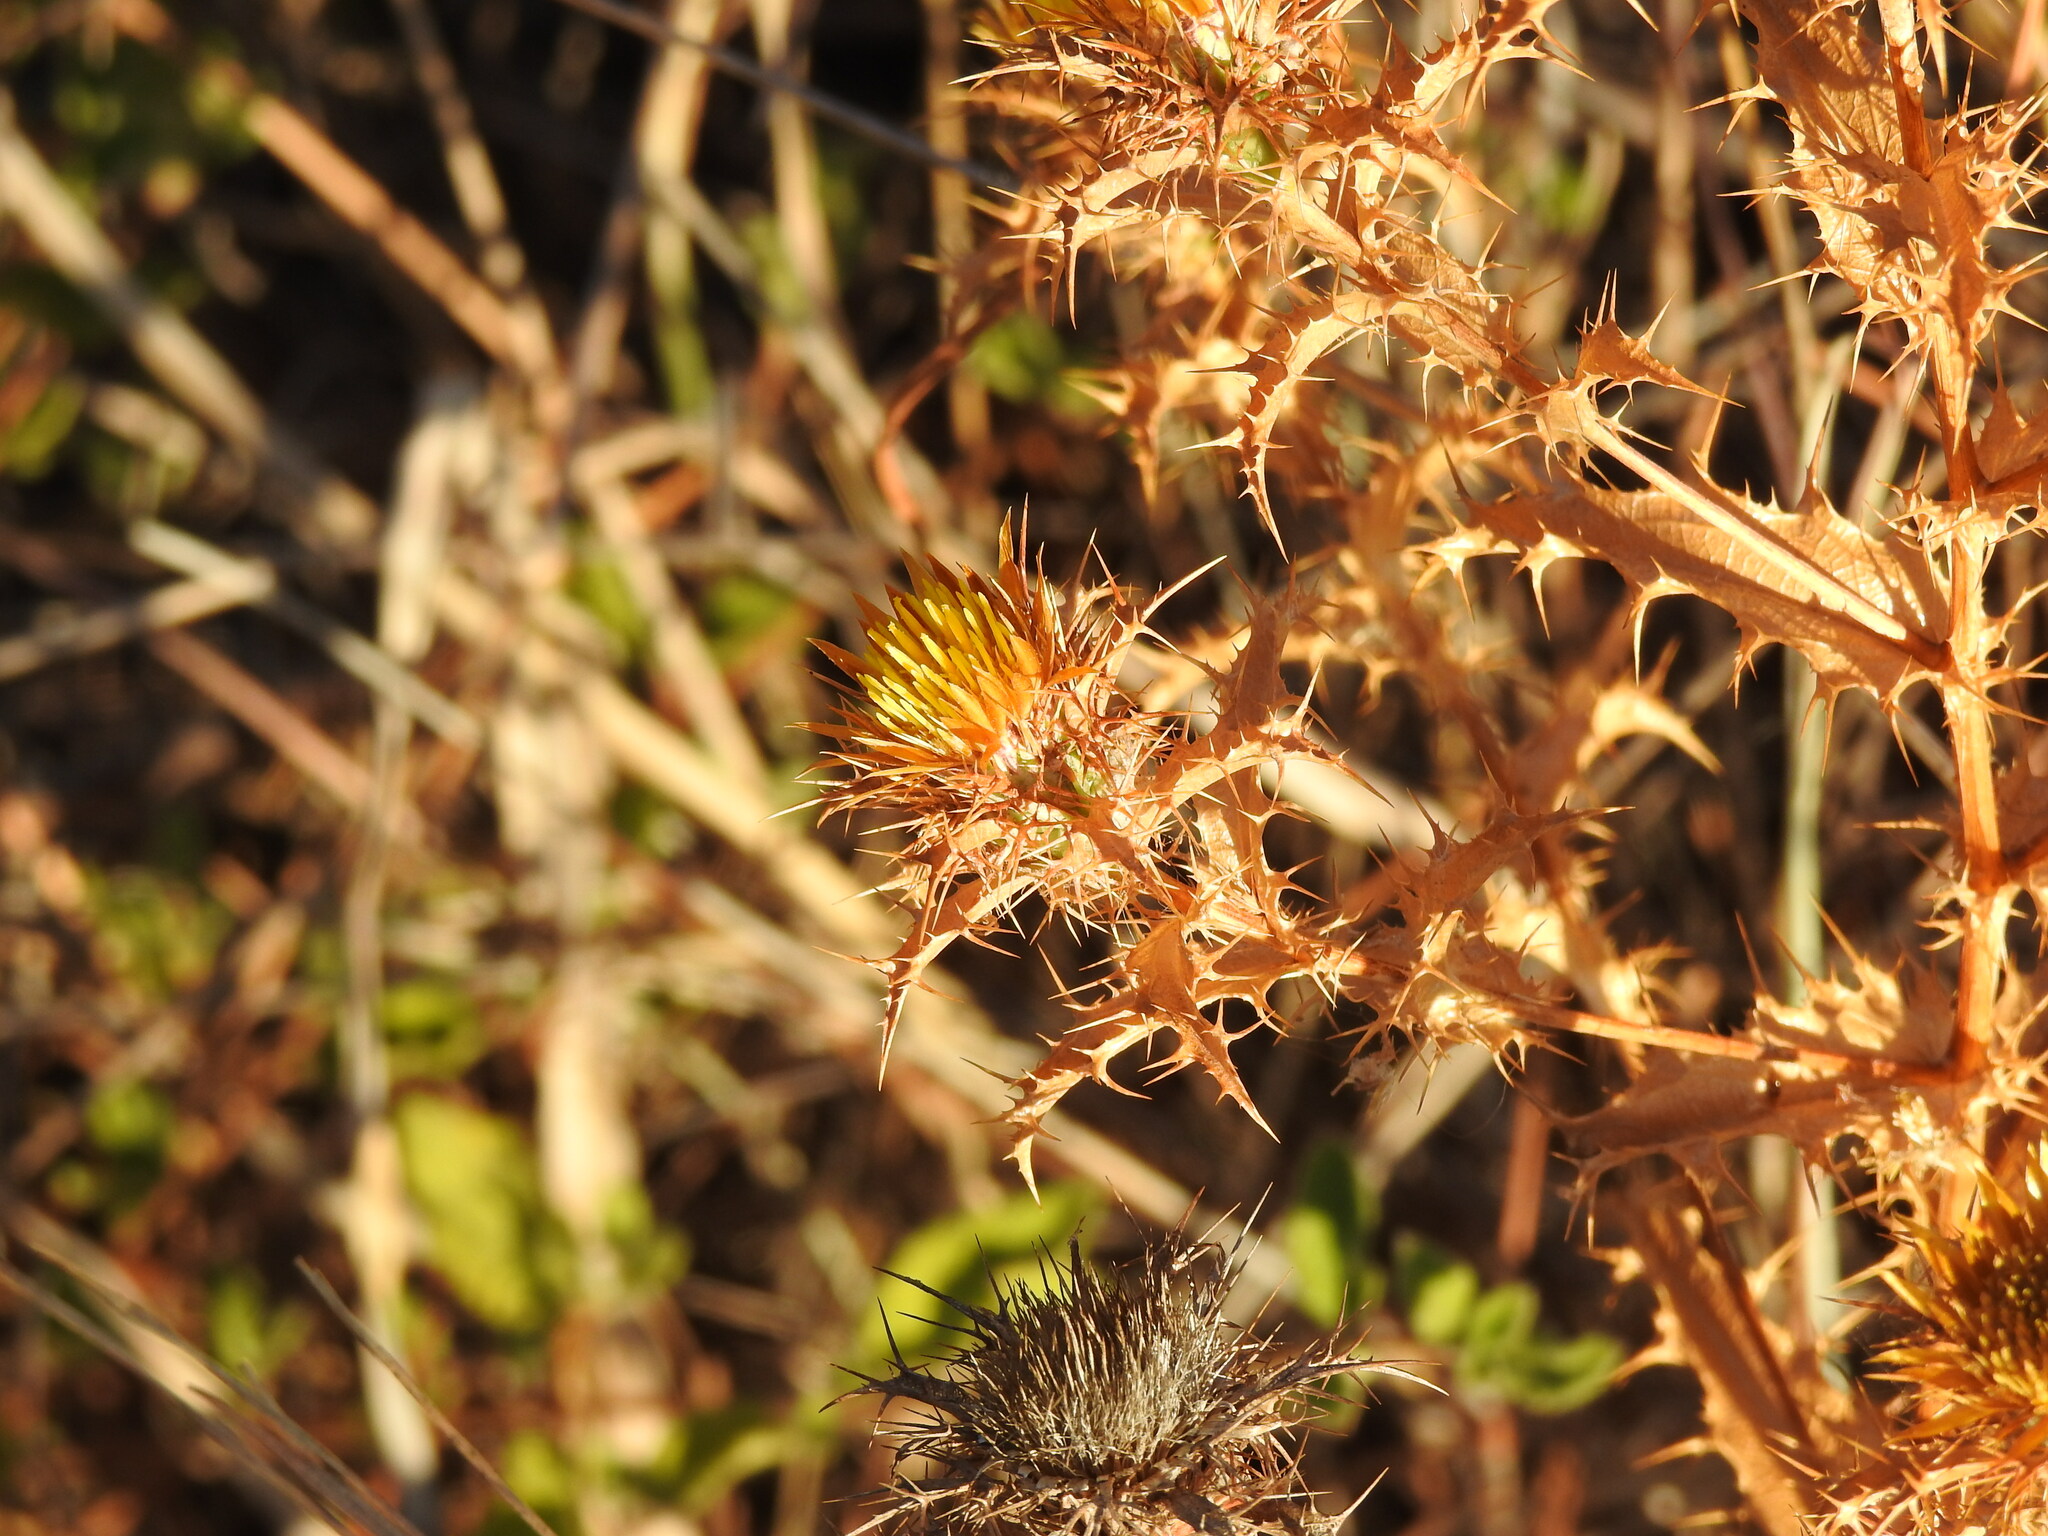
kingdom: Plantae
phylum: Tracheophyta
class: Magnoliopsida
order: Asterales
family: Asteraceae
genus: Carlina
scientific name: Carlina hispanica
